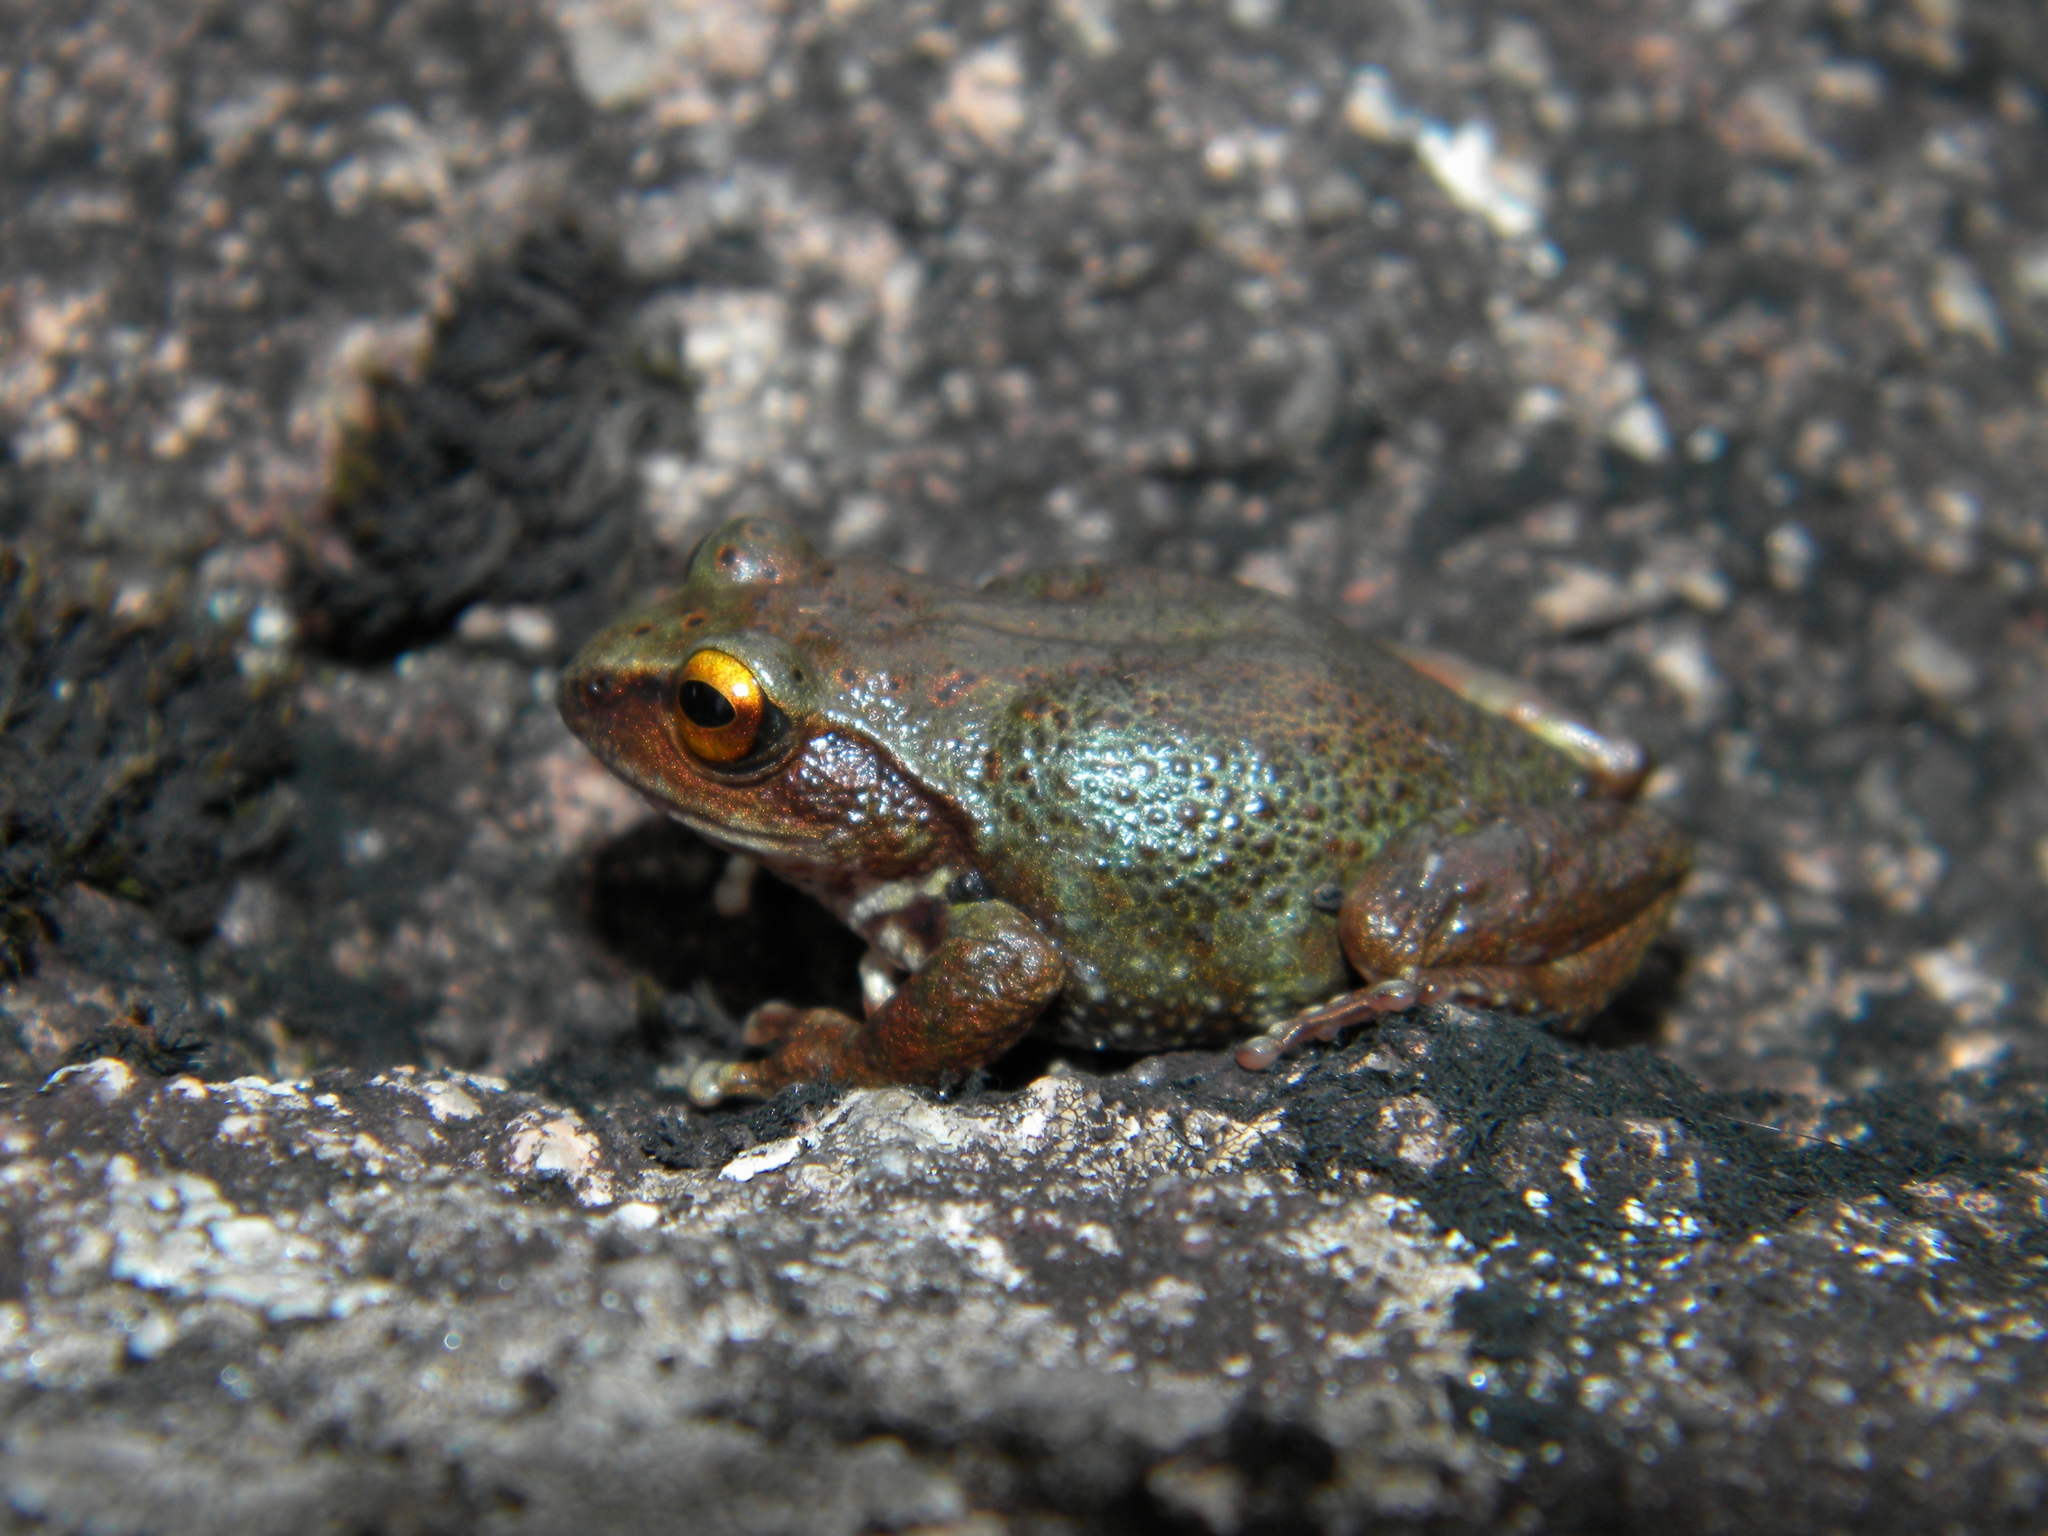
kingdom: Animalia
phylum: Chordata
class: Amphibia
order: Anura
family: Rhacophoridae
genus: Raorchestes
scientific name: Raorchestes dubois
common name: Koadaikanal bush frog
